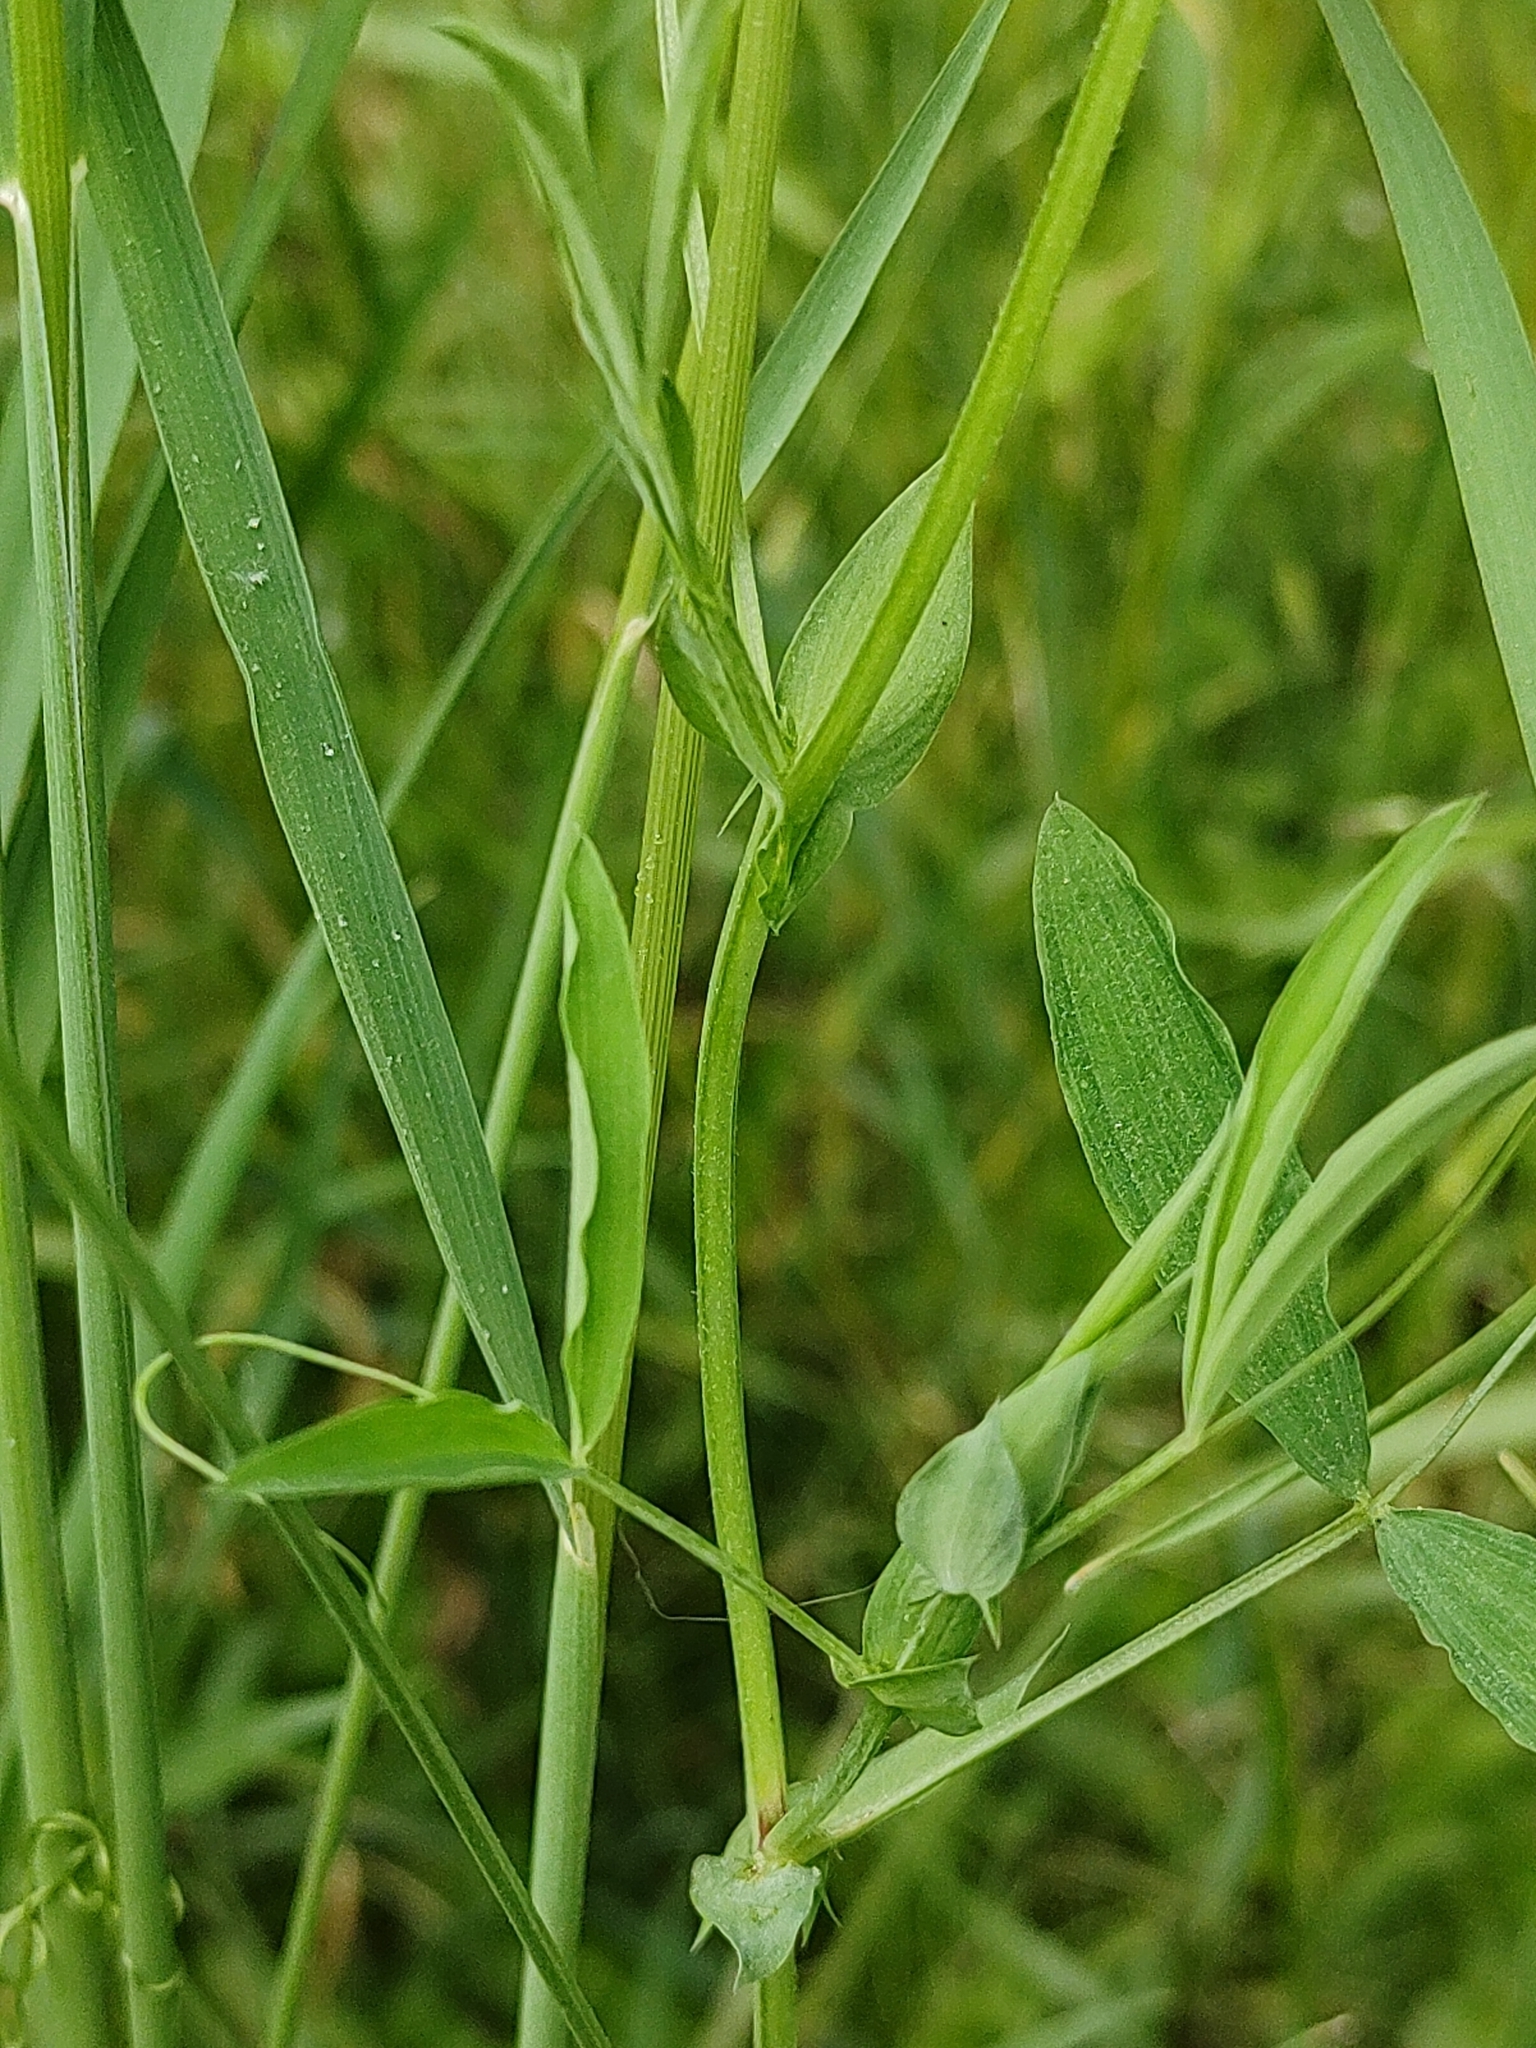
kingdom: Plantae
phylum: Tracheophyta
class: Magnoliopsida
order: Fabales
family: Fabaceae
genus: Lathyrus
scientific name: Lathyrus pratensis
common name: Meadow vetchling
